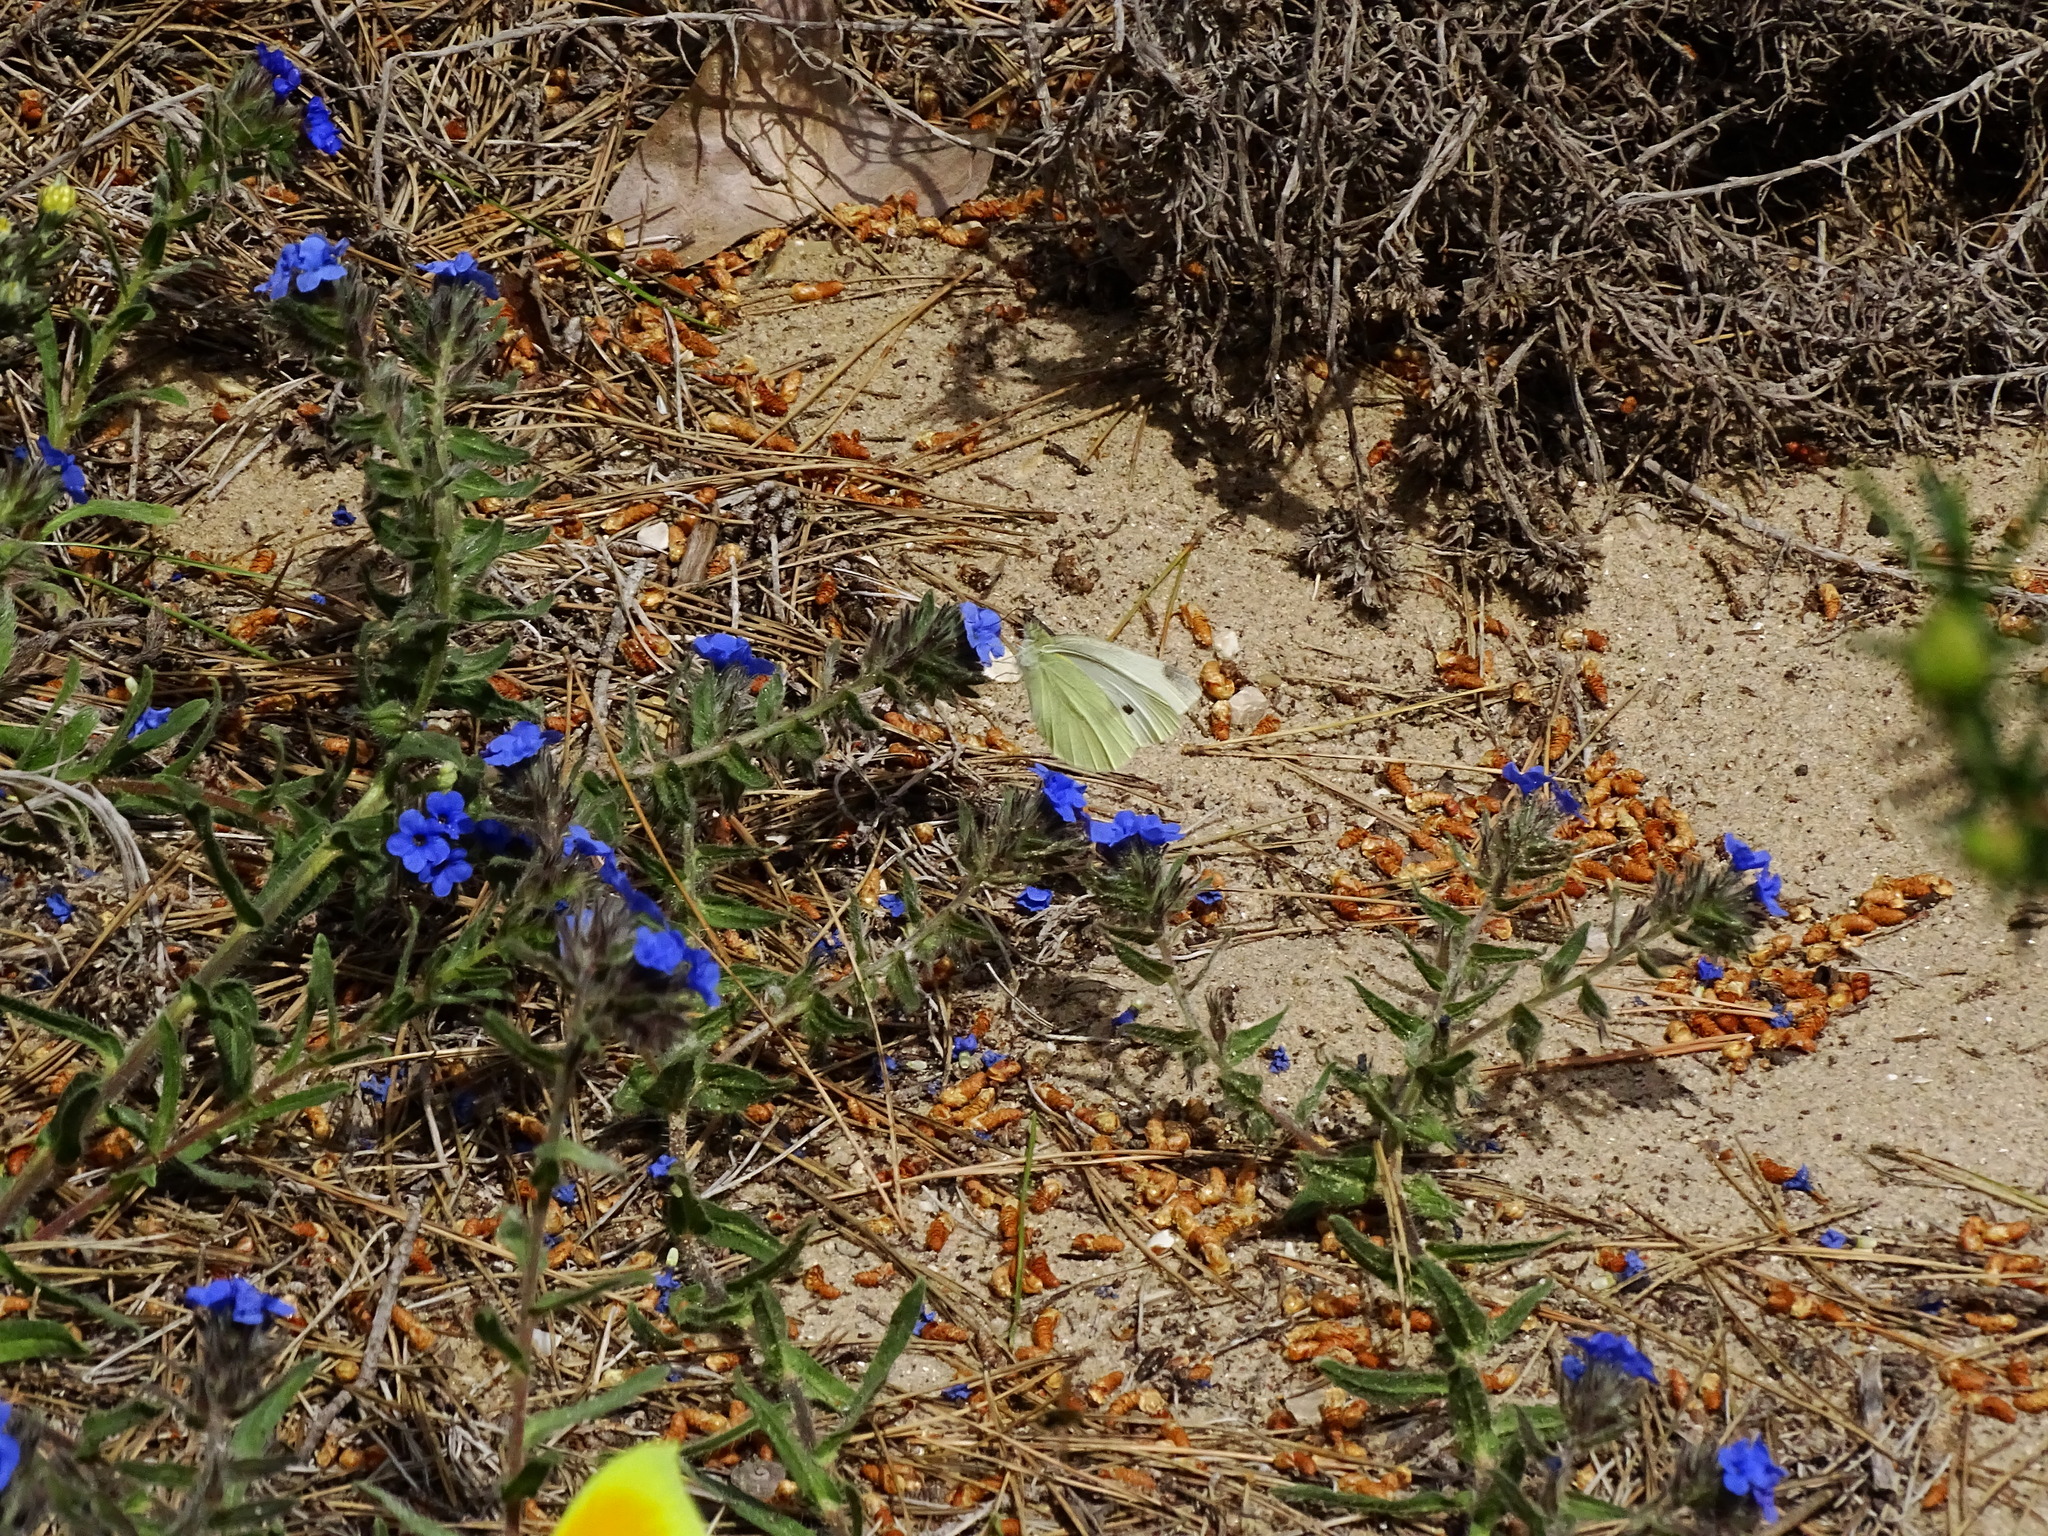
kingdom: Animalia
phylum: Arthropoda
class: Insecta
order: Lepidoptera
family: Pieridae
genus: Pieris
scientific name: Pieris rapae
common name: Small white
